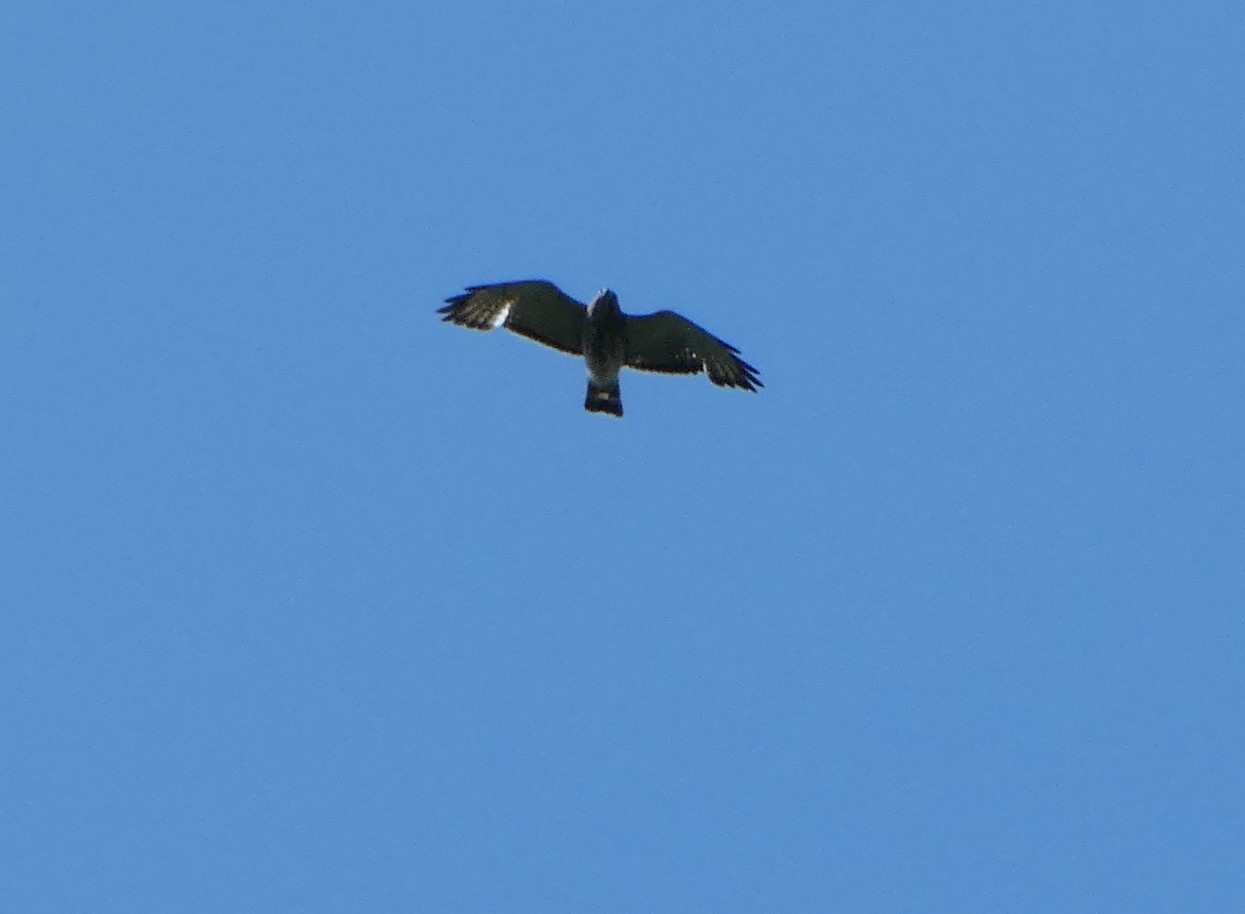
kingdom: Animalia
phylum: Chordata
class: Aves
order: Accipitriformes
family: Accipitridae
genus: Buteo
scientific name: Buteo platypterus
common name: Broad-winged hawk
